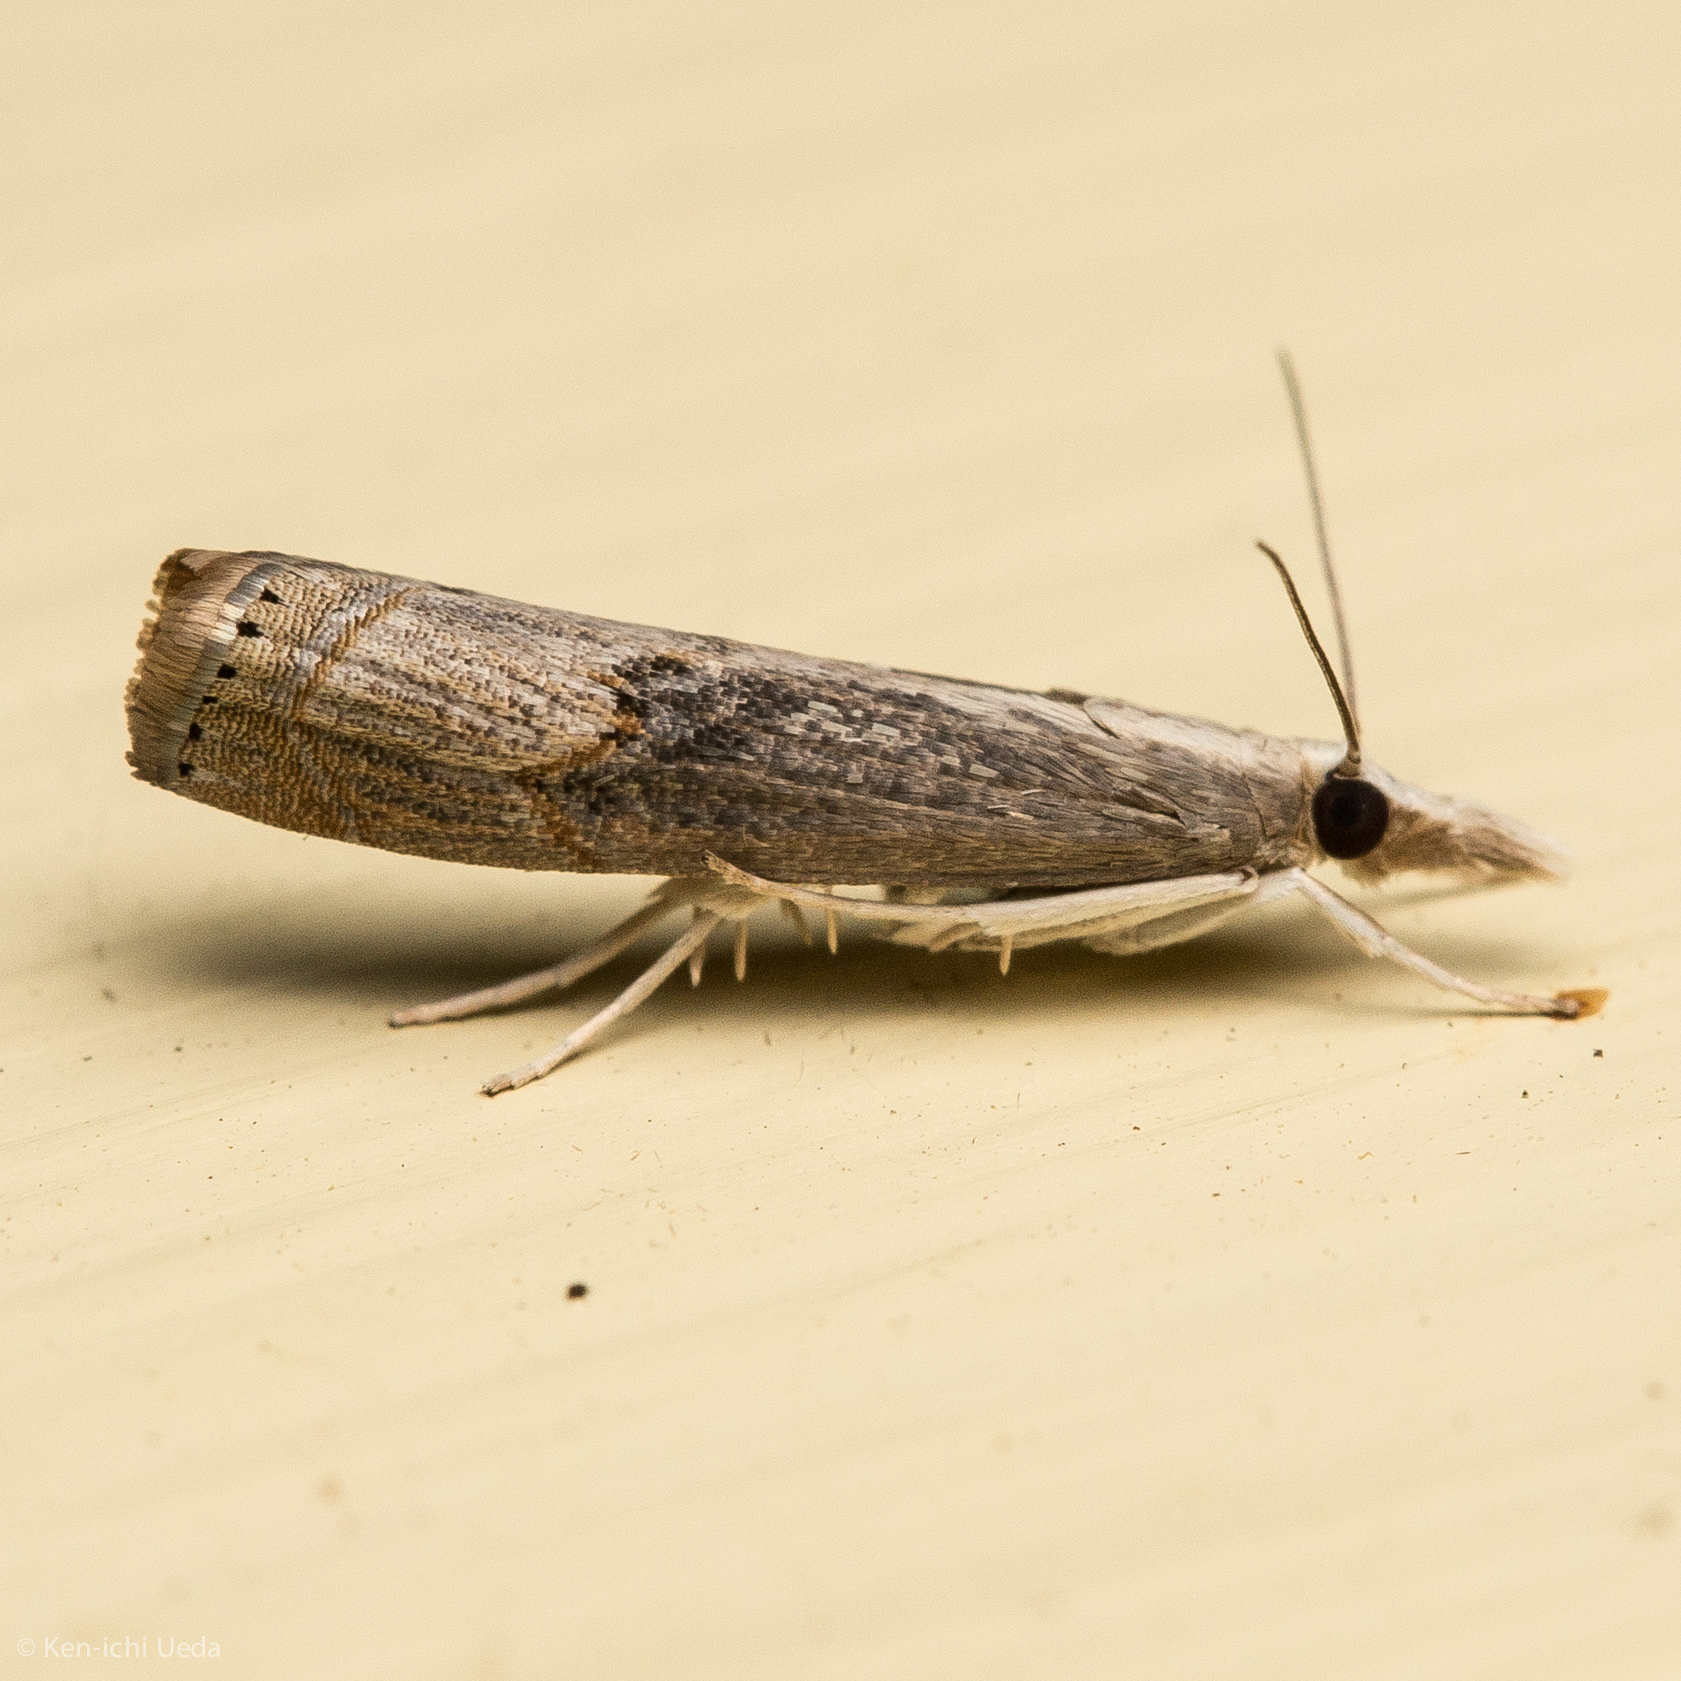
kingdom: Animalia
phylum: Arthropoda
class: Insecta
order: Lepidoptera
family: Crambidae
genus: Parapediasia
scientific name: Parapediasia teterellus
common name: Bluegrass webworm moth
